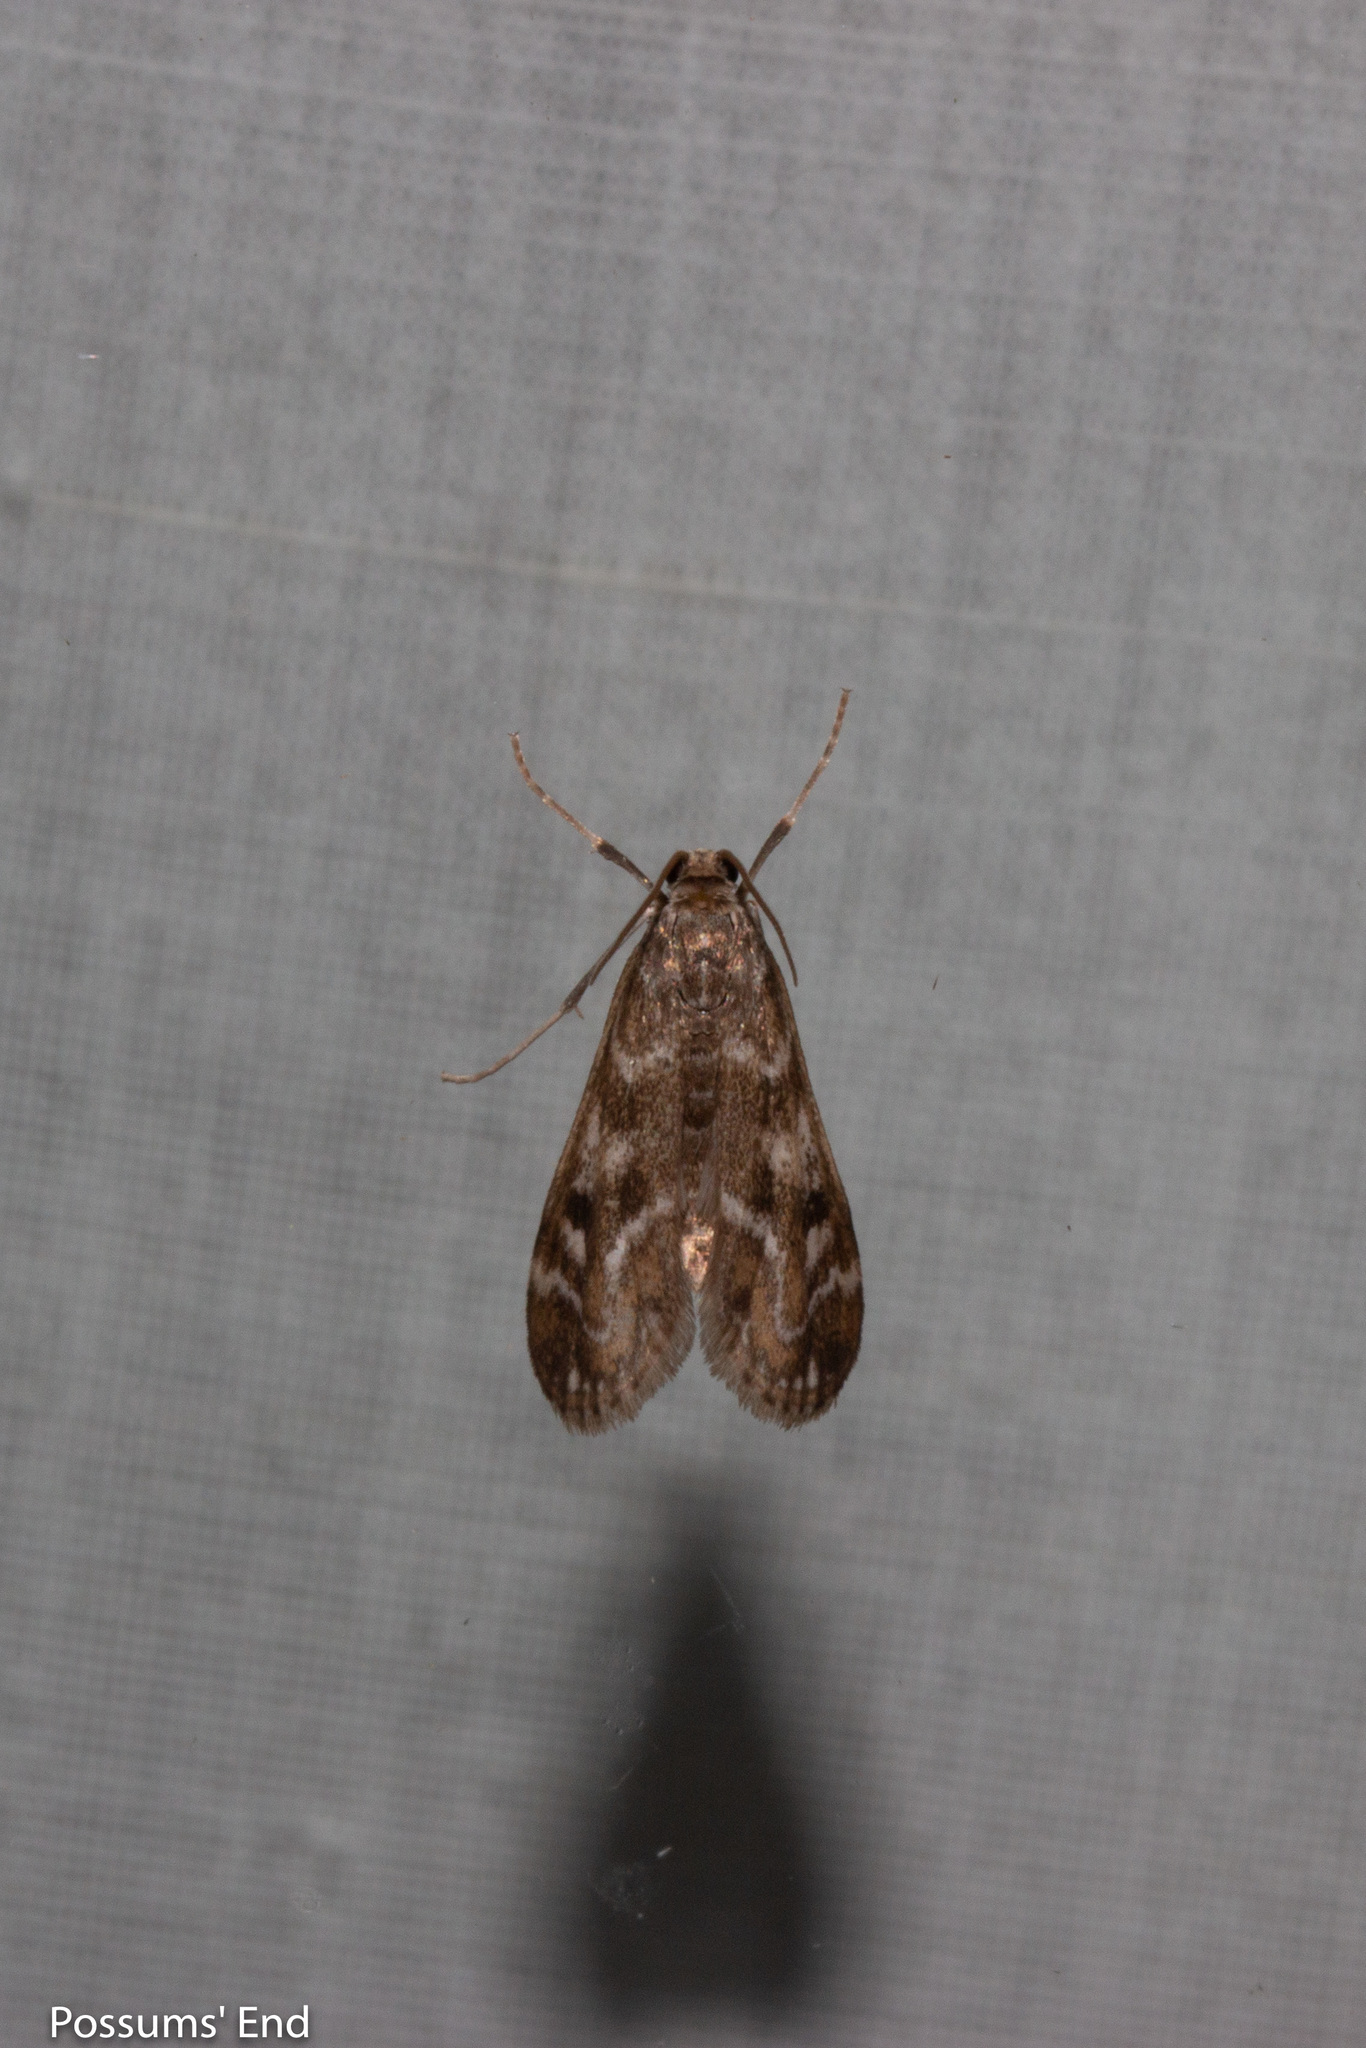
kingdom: Animalia
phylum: Arthropoda
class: Insecta
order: Lepidoptera
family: Crambidae
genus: Hygraula
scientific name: Hygraula nitens
